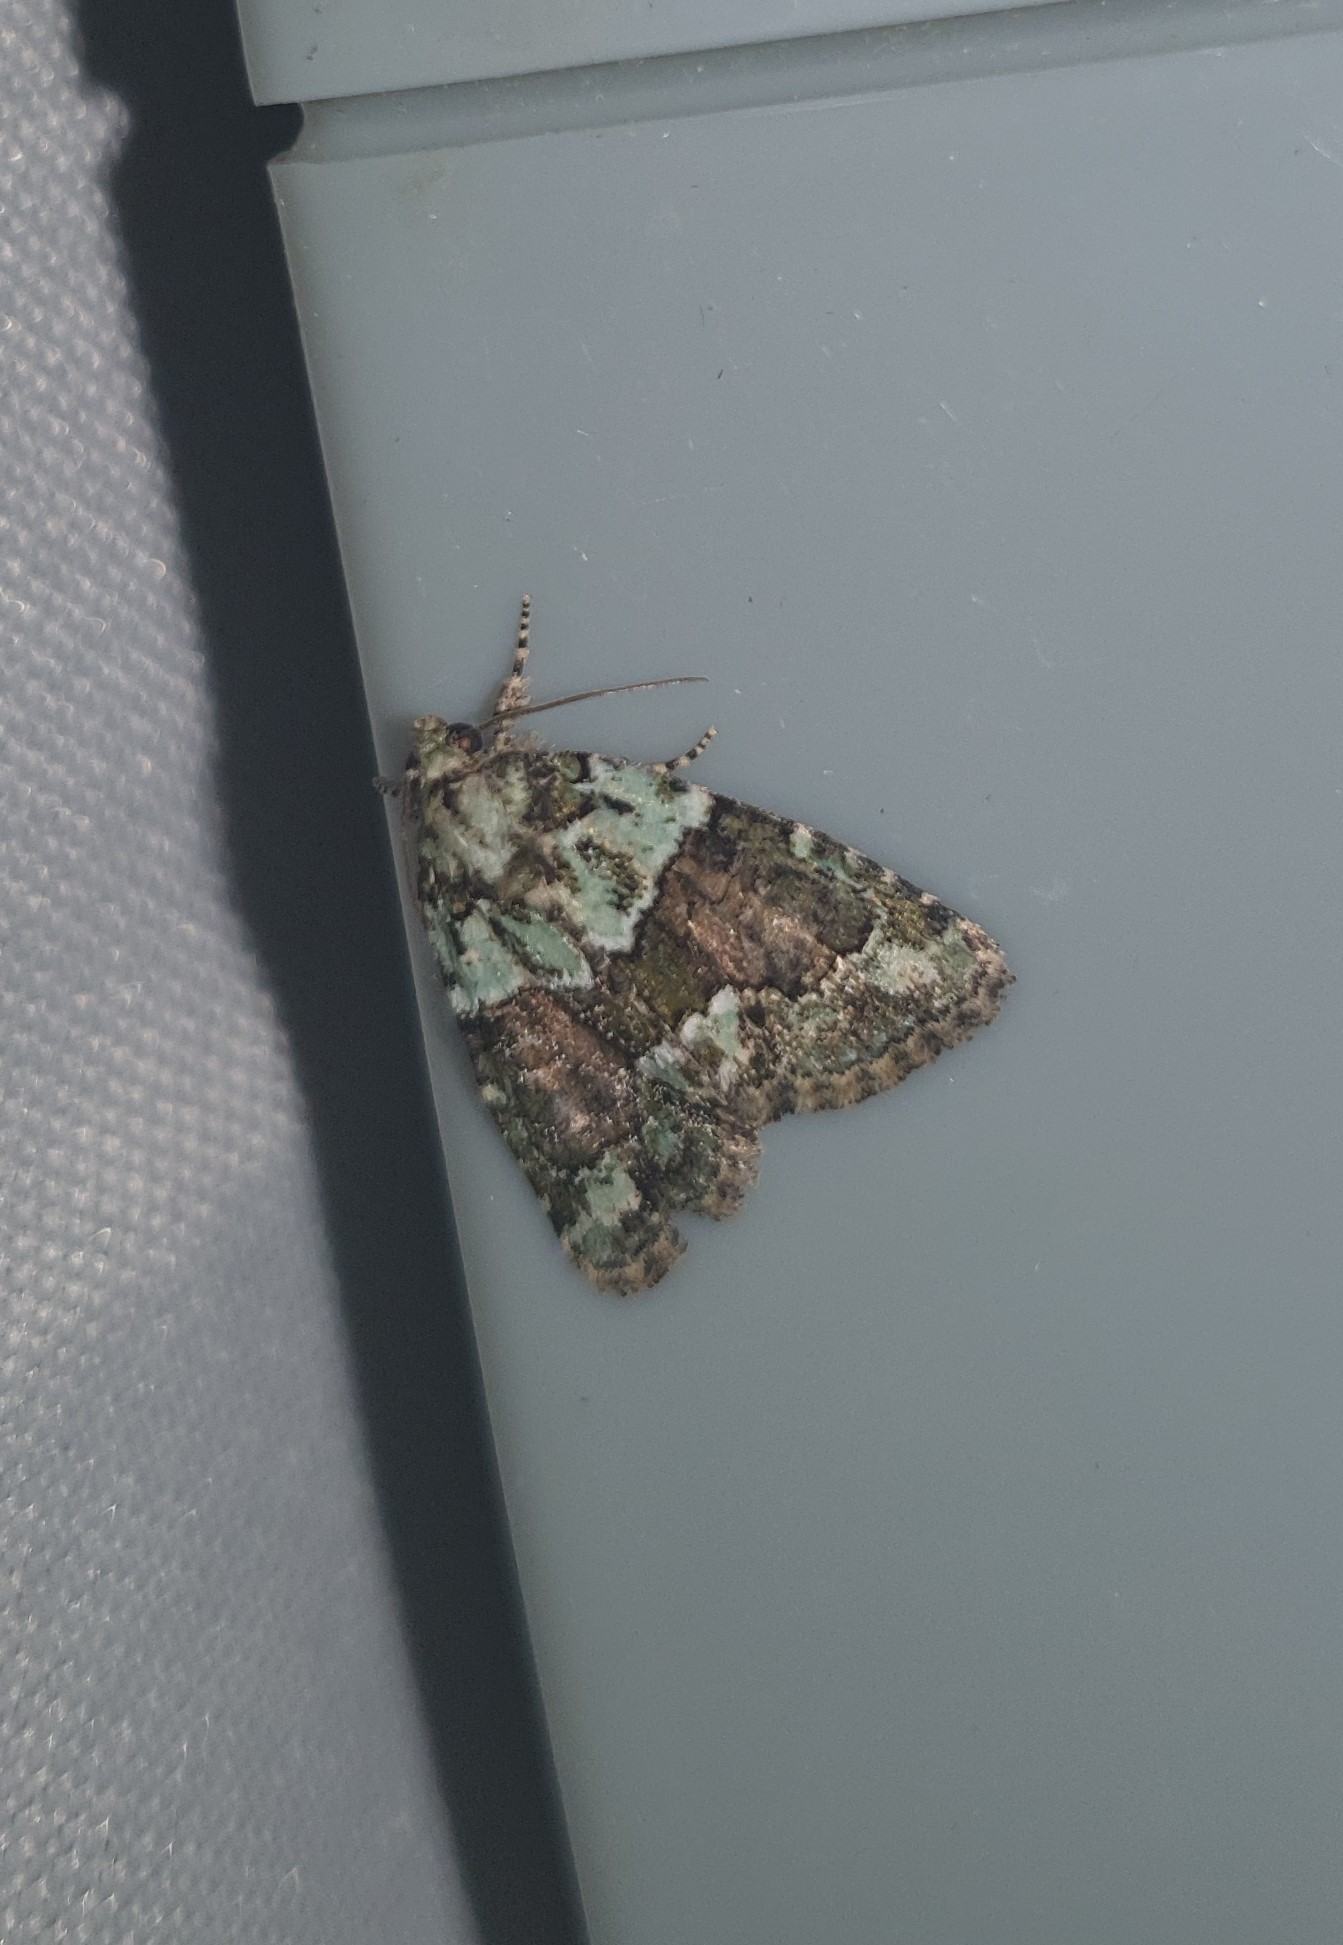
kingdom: Animalia
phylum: Arthropoda
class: Insecta
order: Lepidoptera
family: Noctuidae
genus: Cryphia
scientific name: Cryphia algae
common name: Tree-lichen beauty
